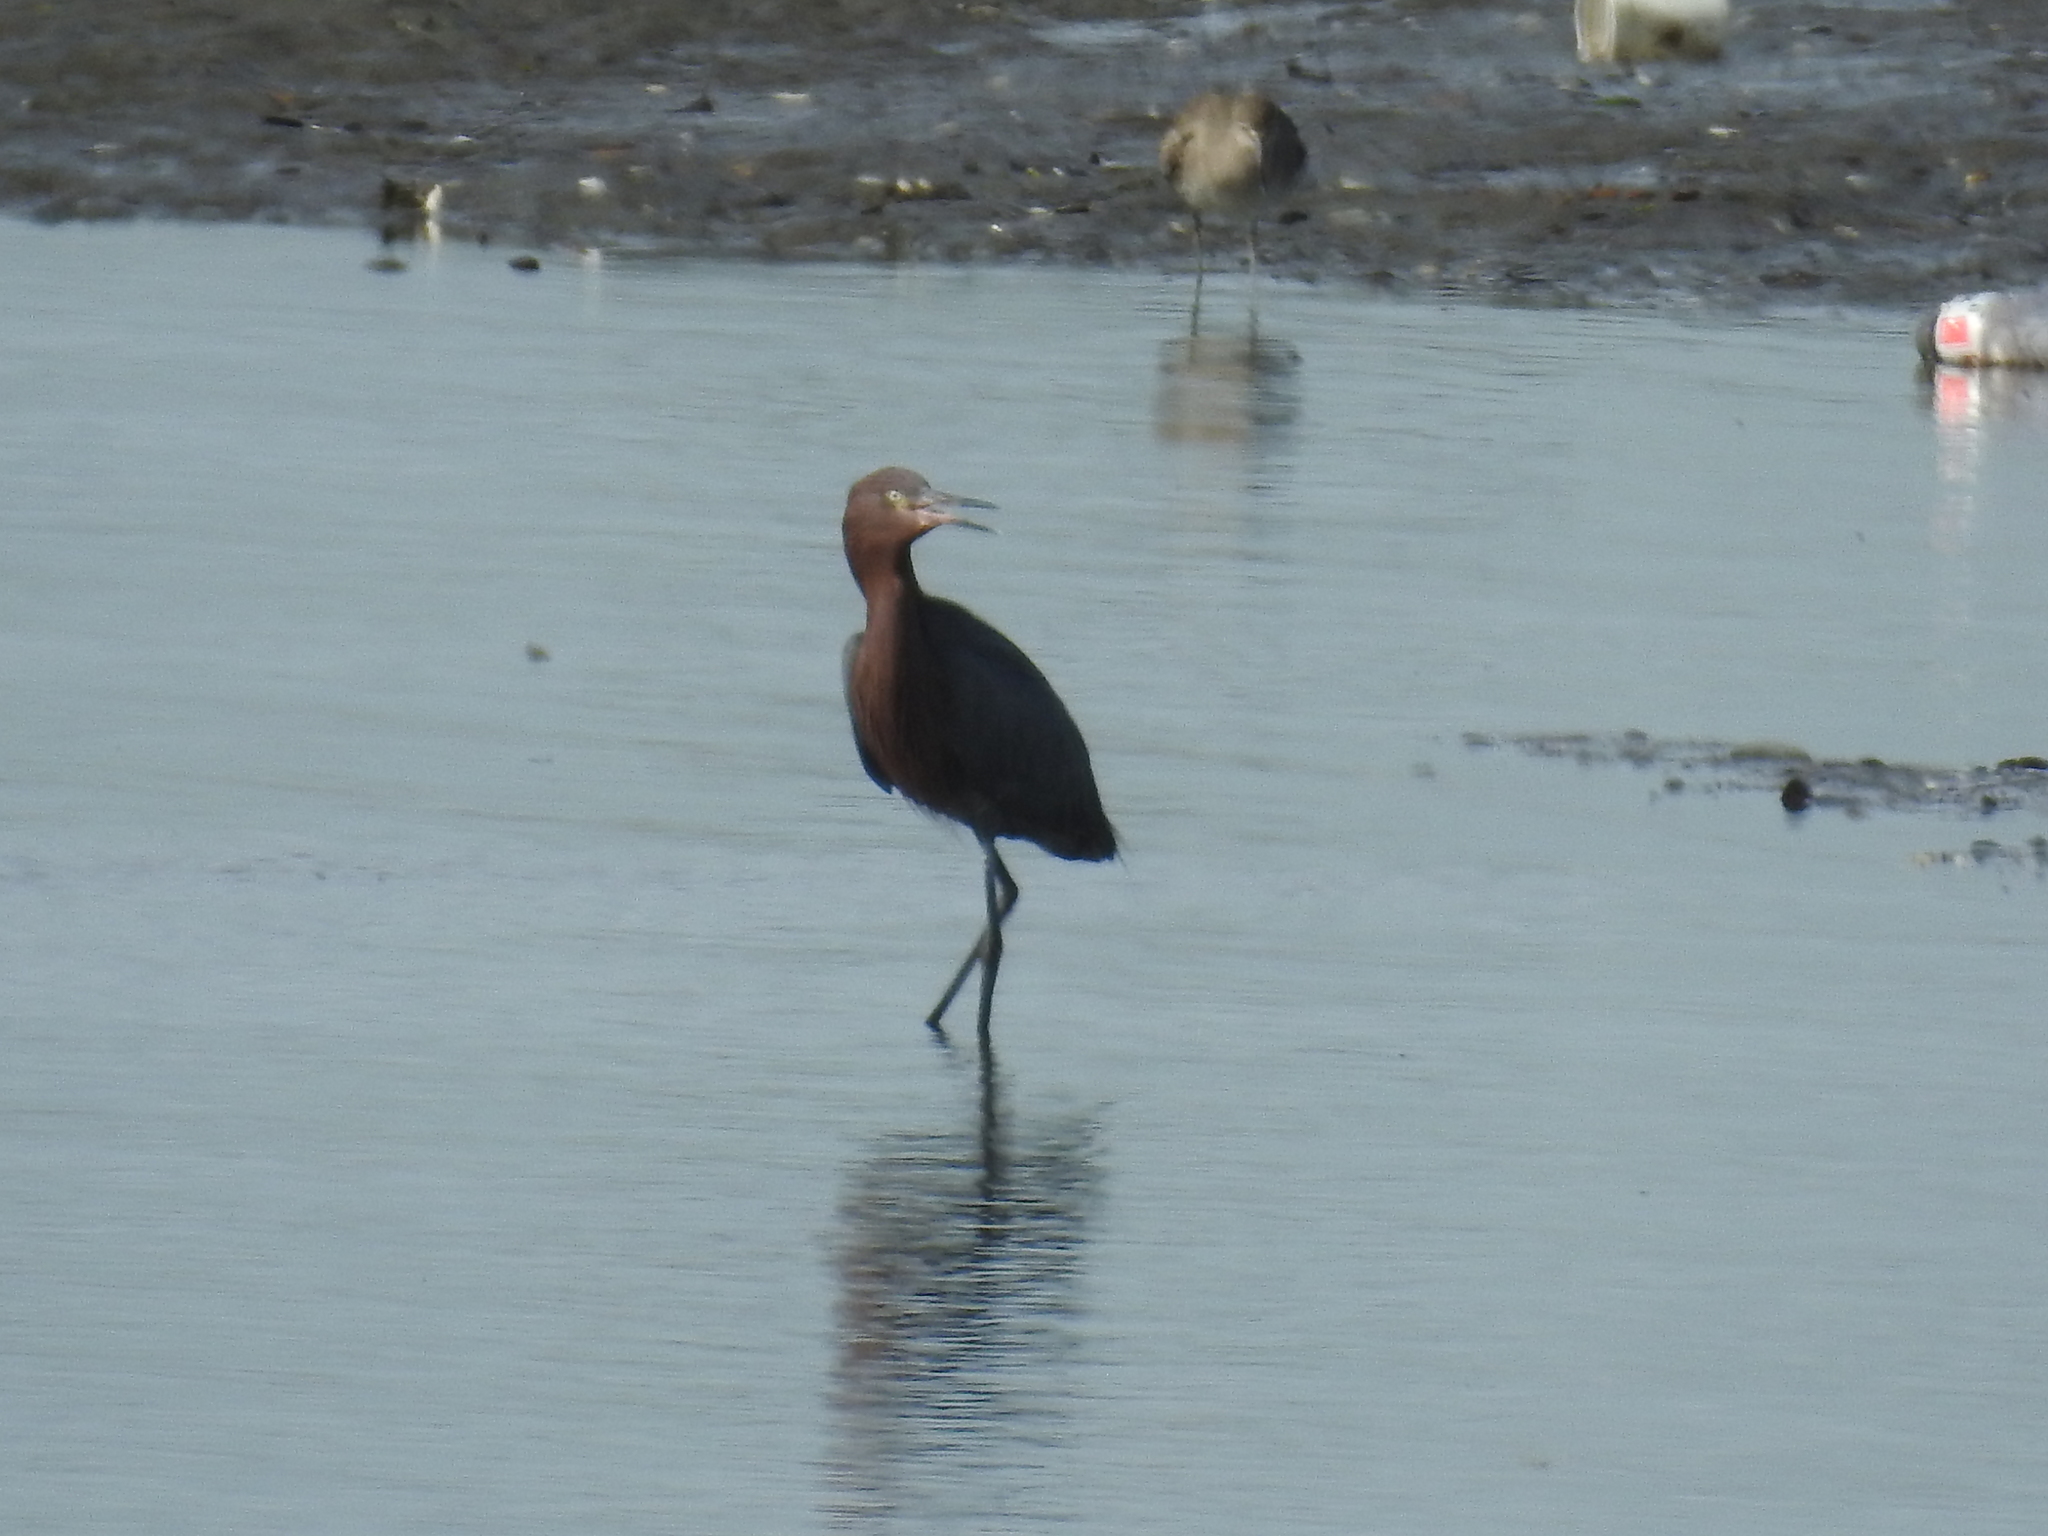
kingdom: Animalia
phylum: Chordata
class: Aves
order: Pelecaniformes
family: Ardeidae
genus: Egretta
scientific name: Egretta rufescens
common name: Reddish egret
